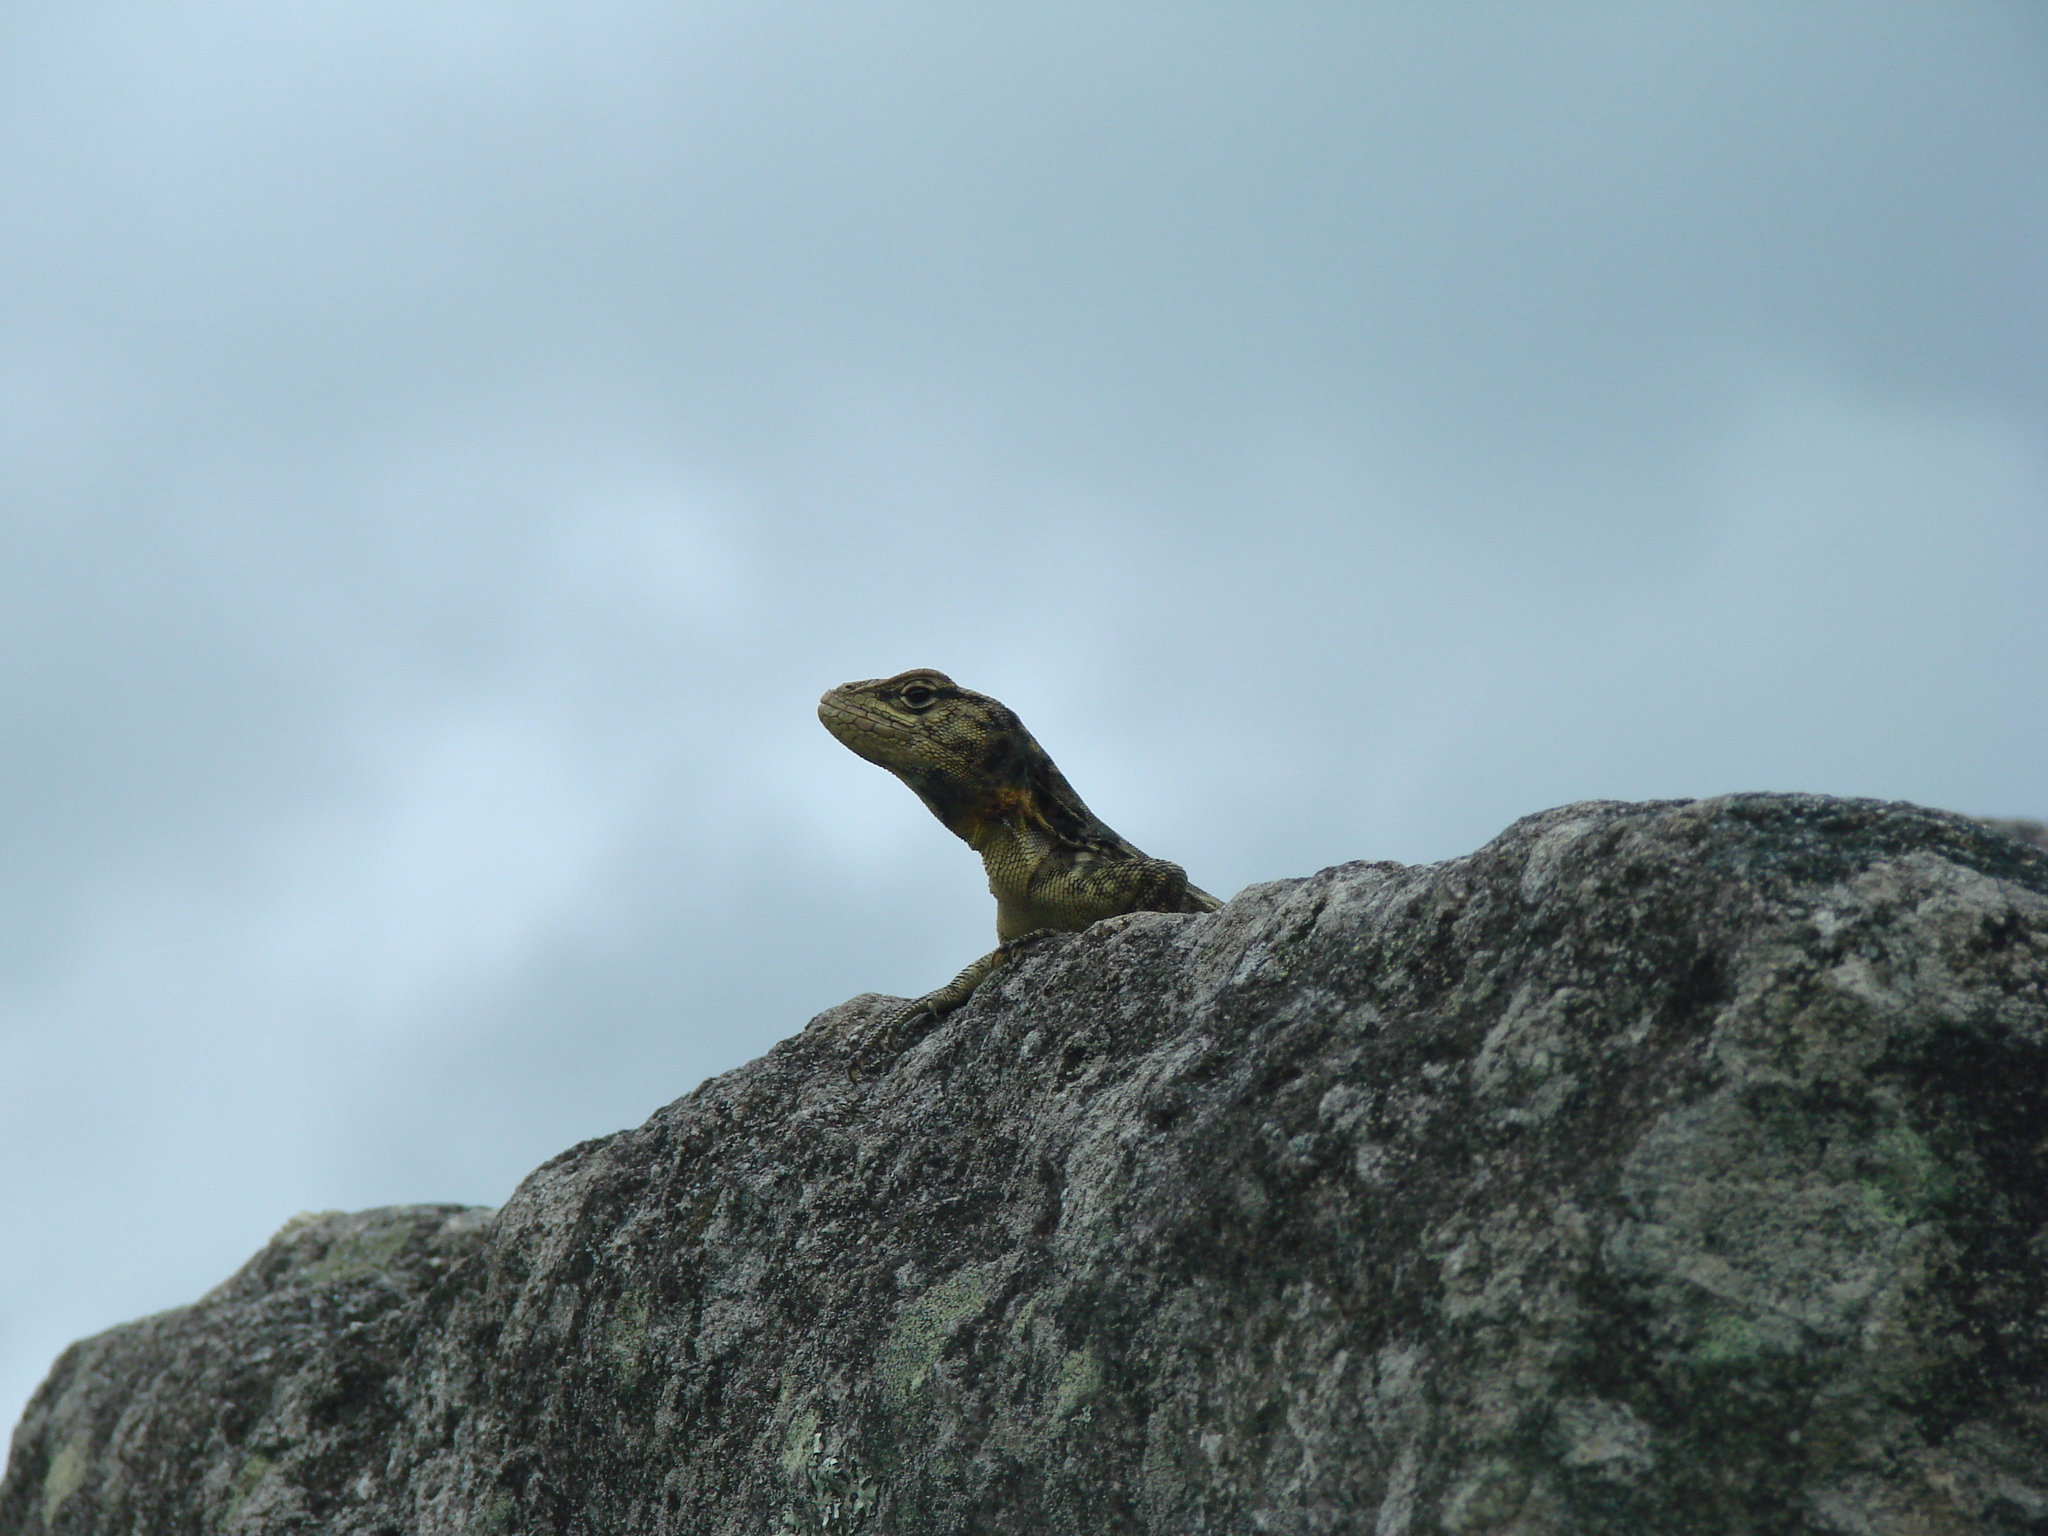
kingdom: Animalia
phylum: Chordata
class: Squamata
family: Tropiduridae
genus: Stenocercus
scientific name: Stenocercus crassicaudatus
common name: Spiny whorltail iguana
